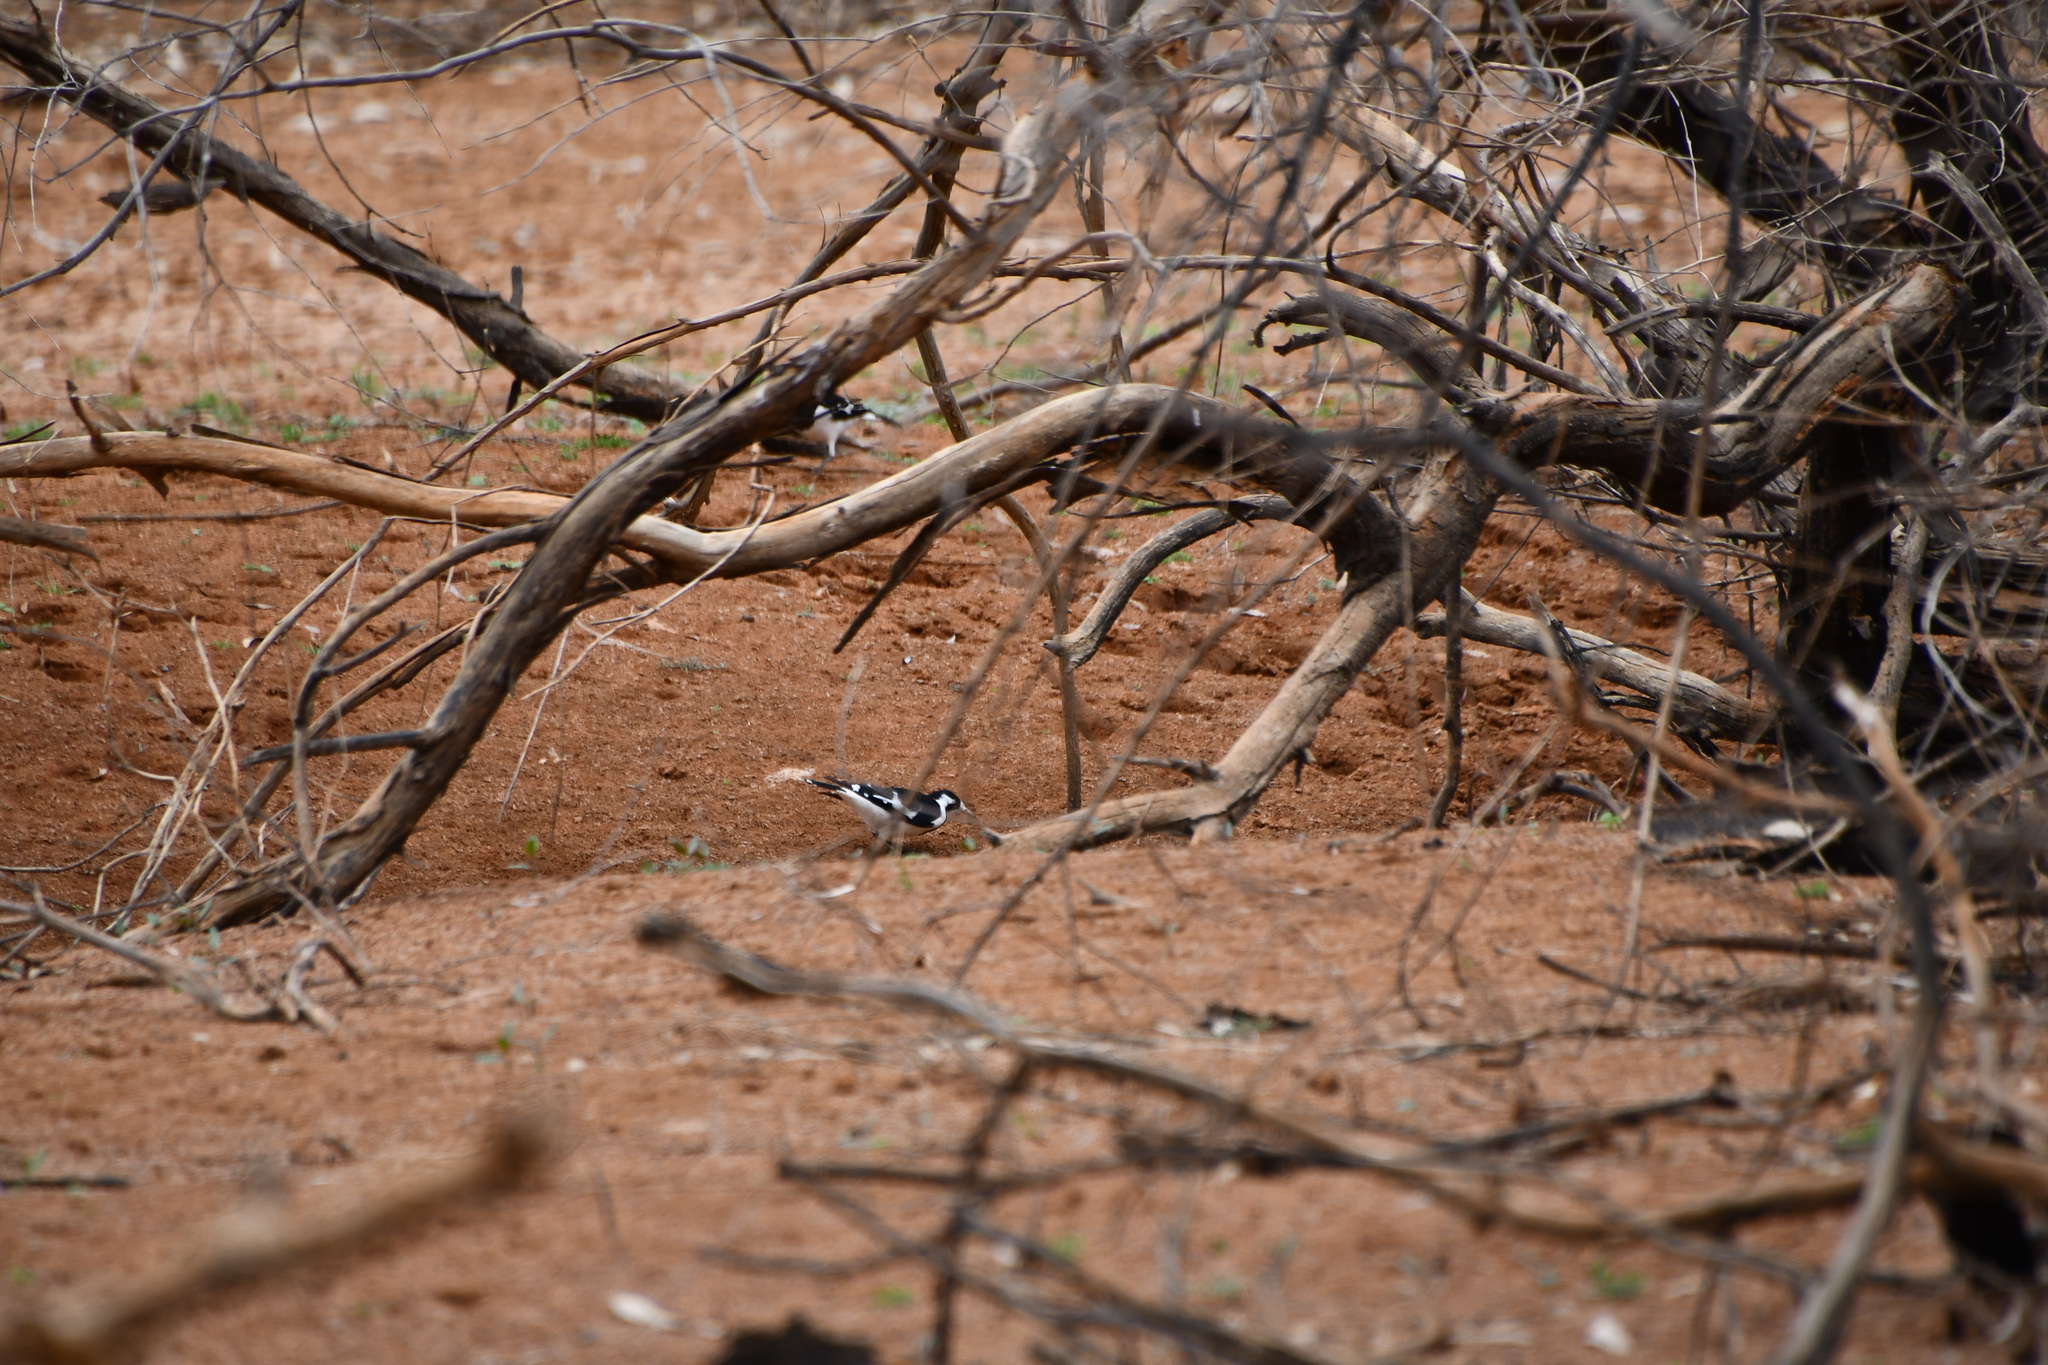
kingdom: Animalia
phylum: Chordata
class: Aves
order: Passeriformes
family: Monarchidae
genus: Grallina
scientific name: Grallina cyanoleuca
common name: Magpie-lark
